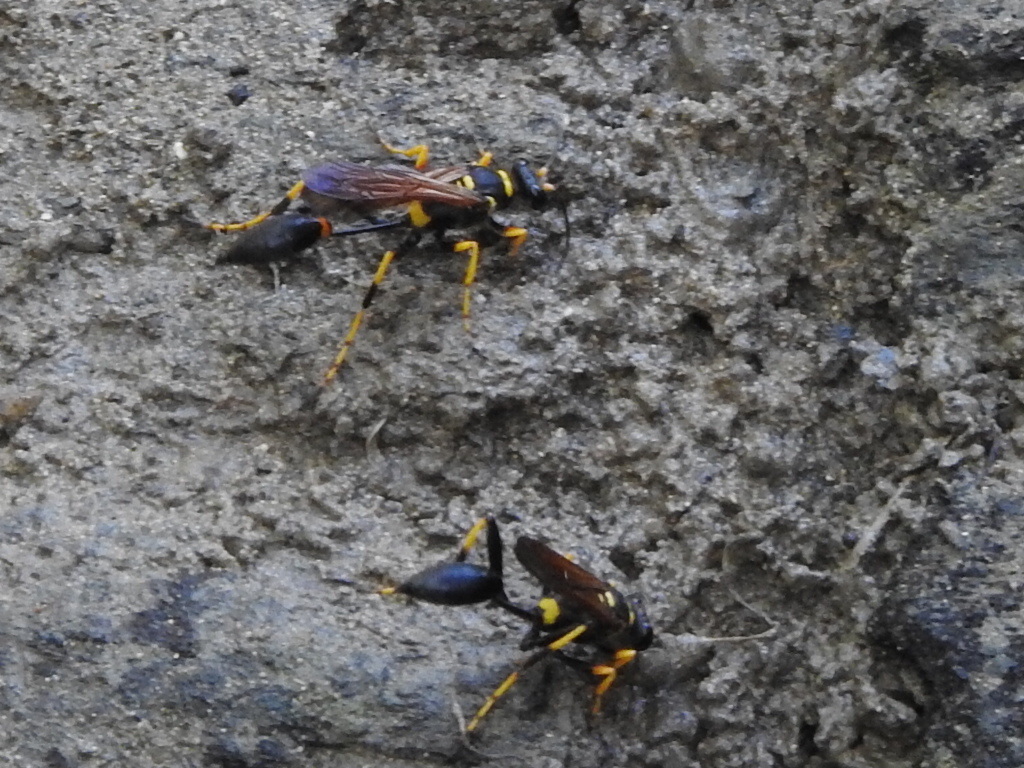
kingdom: Animalia
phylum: Arthropoda
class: Insecta
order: Hymenoptera
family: Sphecidae
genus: Sceliphron
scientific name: Sceliphron caementarium
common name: Mud dauber
